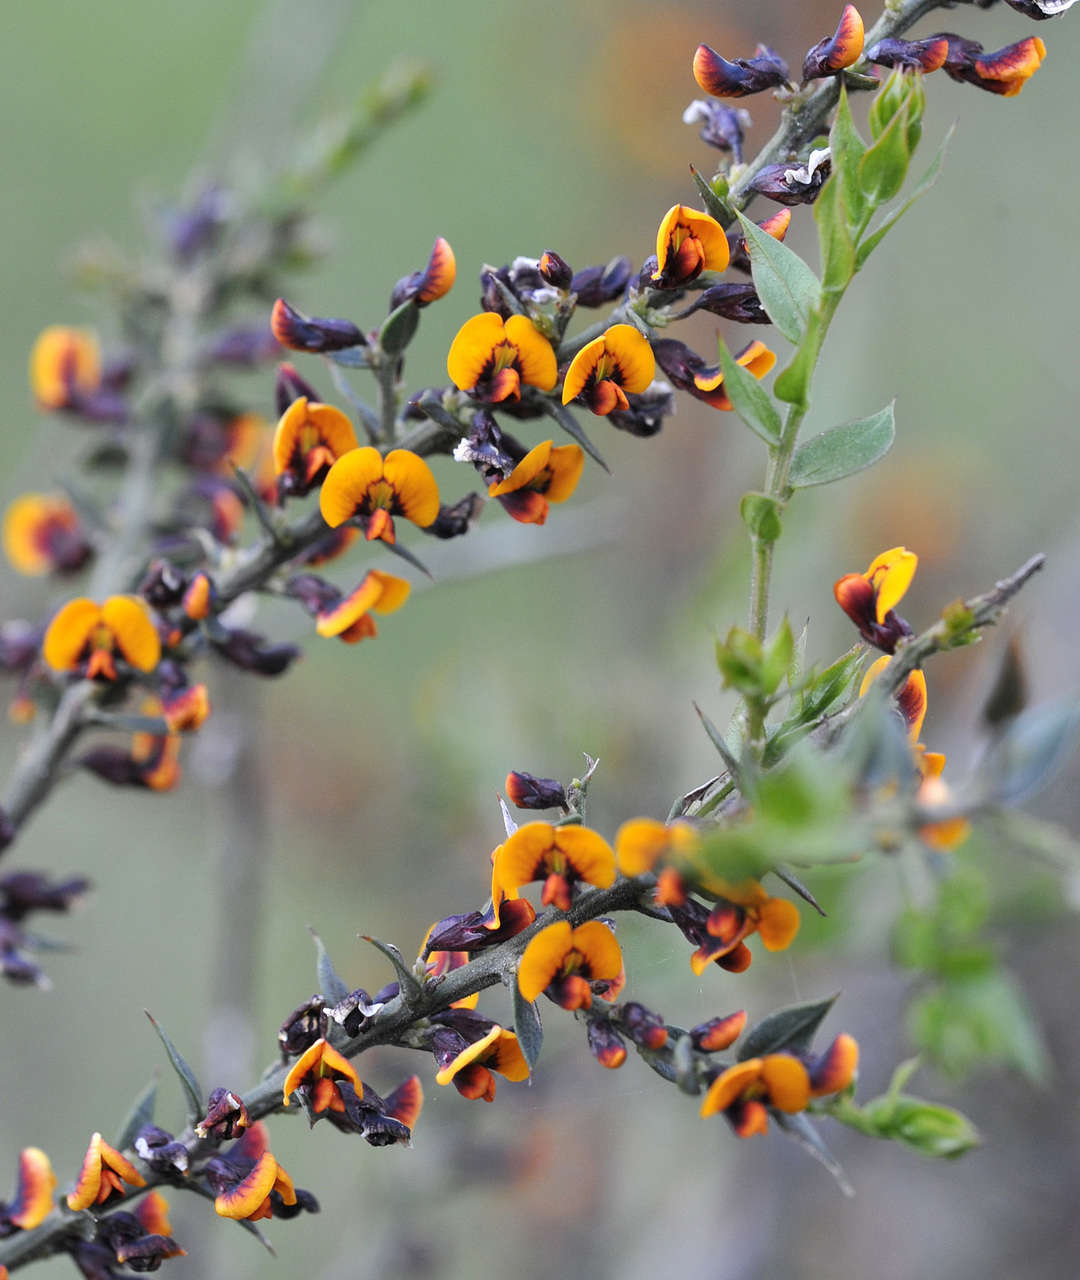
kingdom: Plantae
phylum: Tracheophyta
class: Magnoliopsida
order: Fabales
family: Fabaceae
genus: Daviesia
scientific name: Daviesia ulicifolia
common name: Gorse bitter-pea
